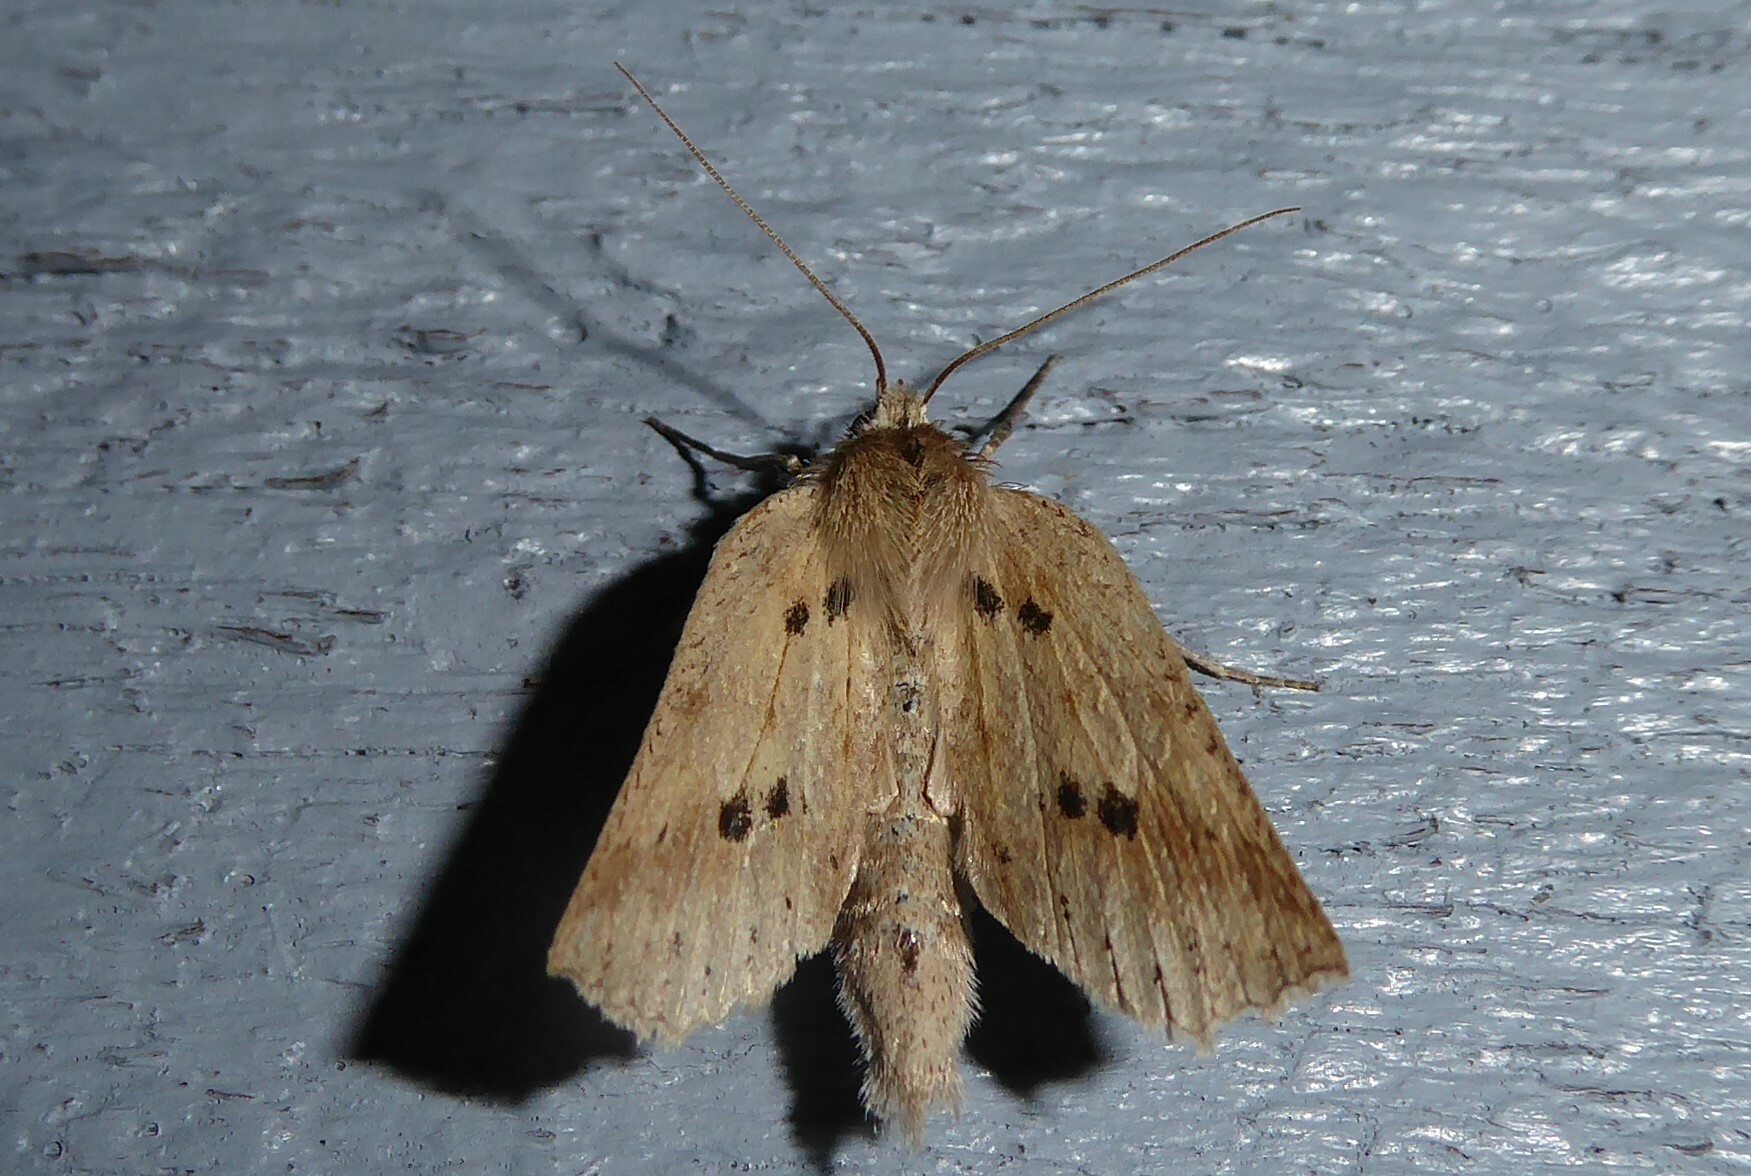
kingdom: Animalia
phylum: Arthropoda
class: Insecta
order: Lepidoptera
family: Geometridae
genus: Declana
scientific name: Declana leptomera
